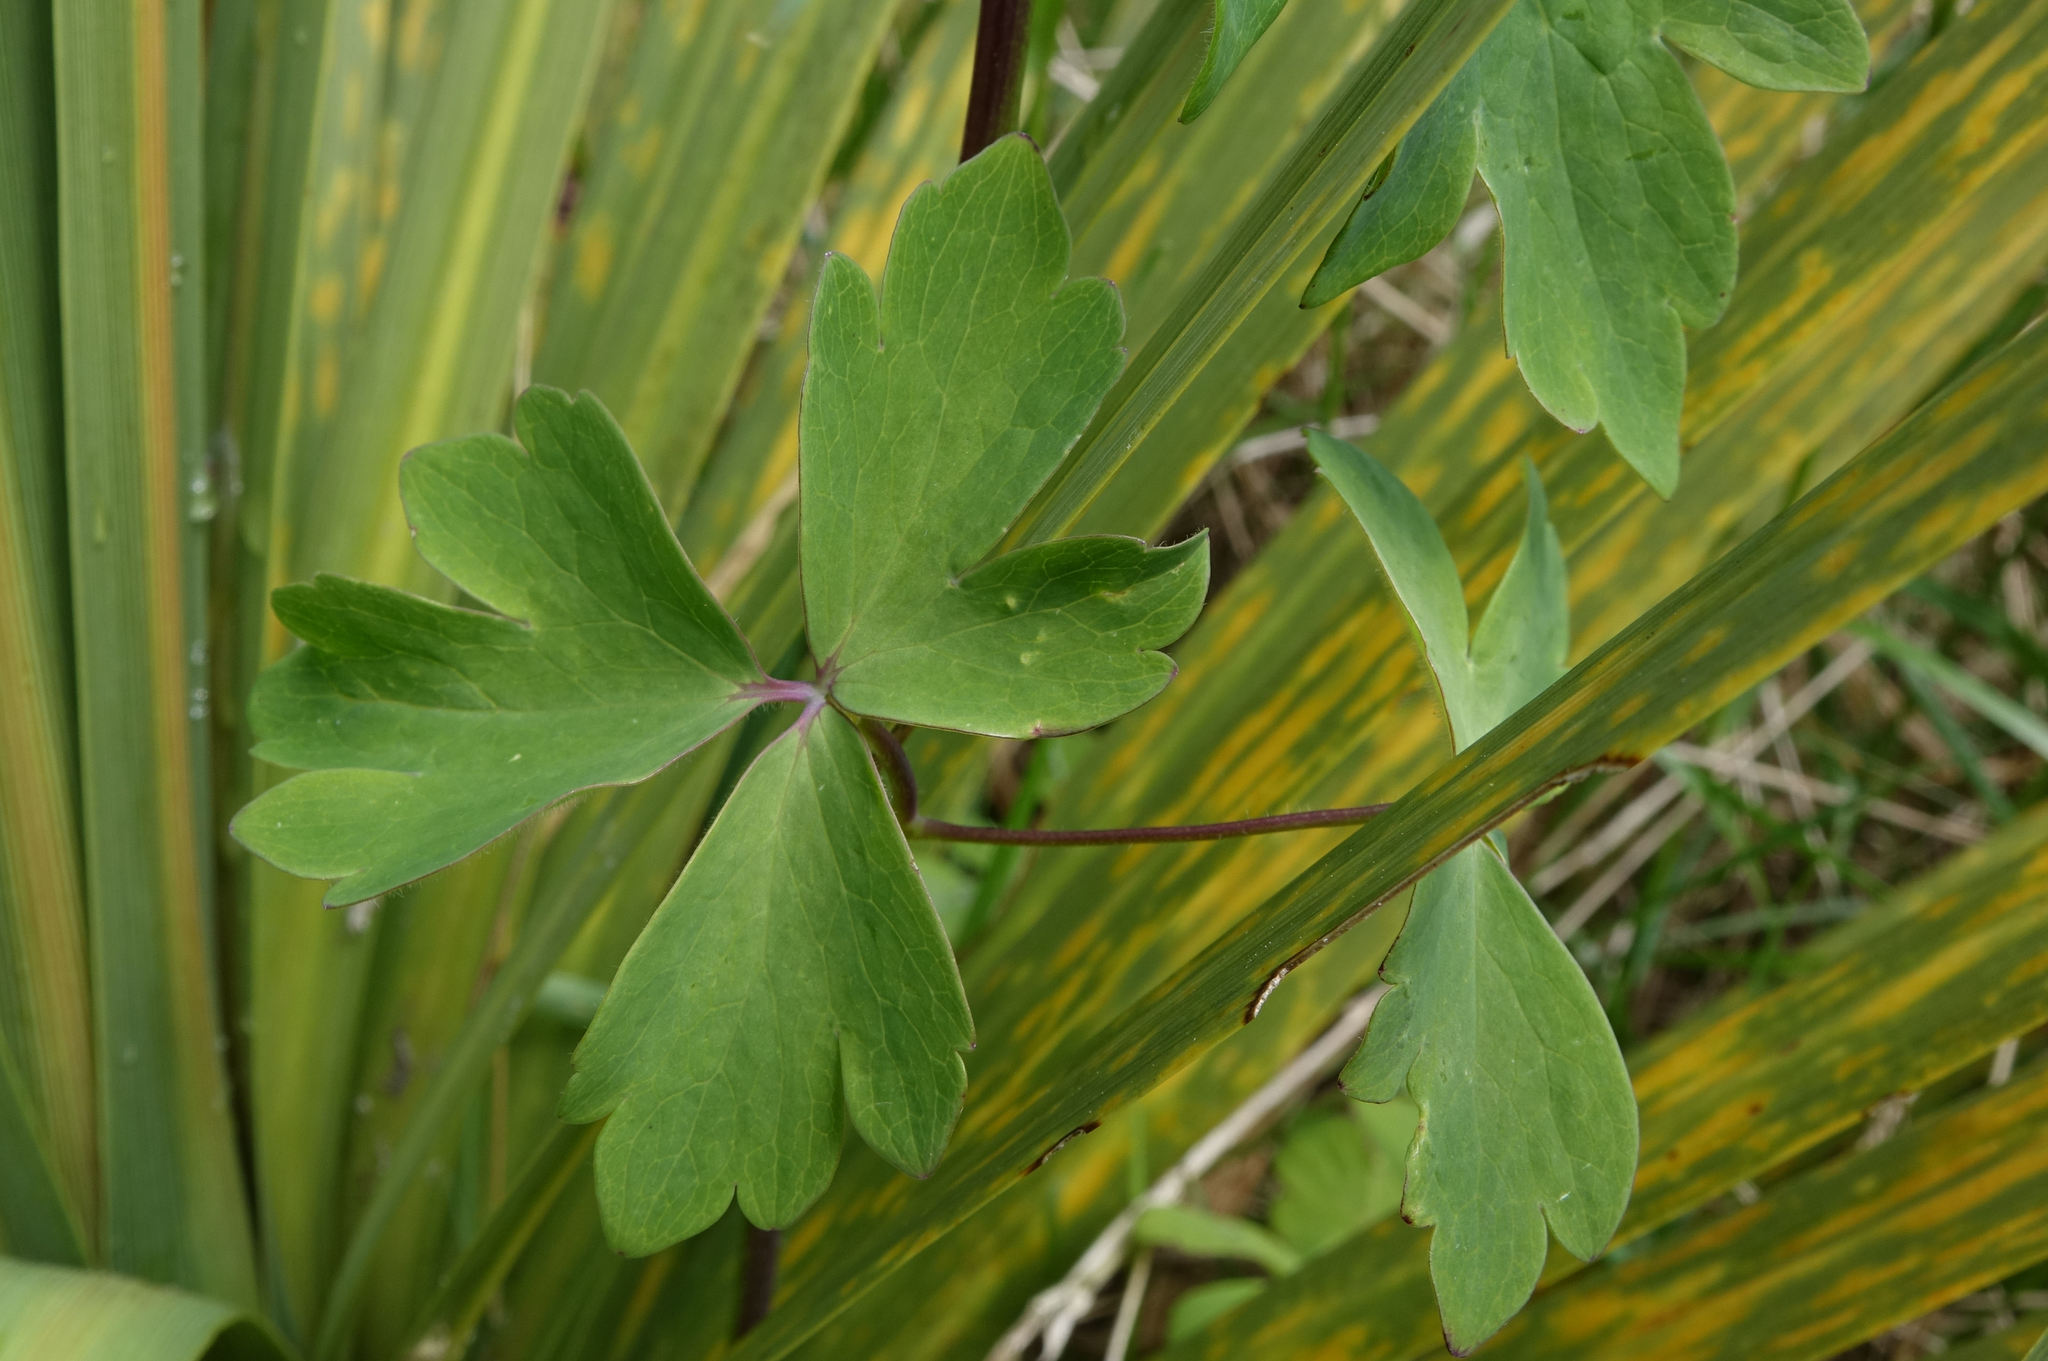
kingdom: Plantae
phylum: Tracheophyta
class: Magnoliopsida
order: Ranunculales
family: Ranunculaceae
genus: Aquilegia
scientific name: Aquilegia vulgaris
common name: Columbine
